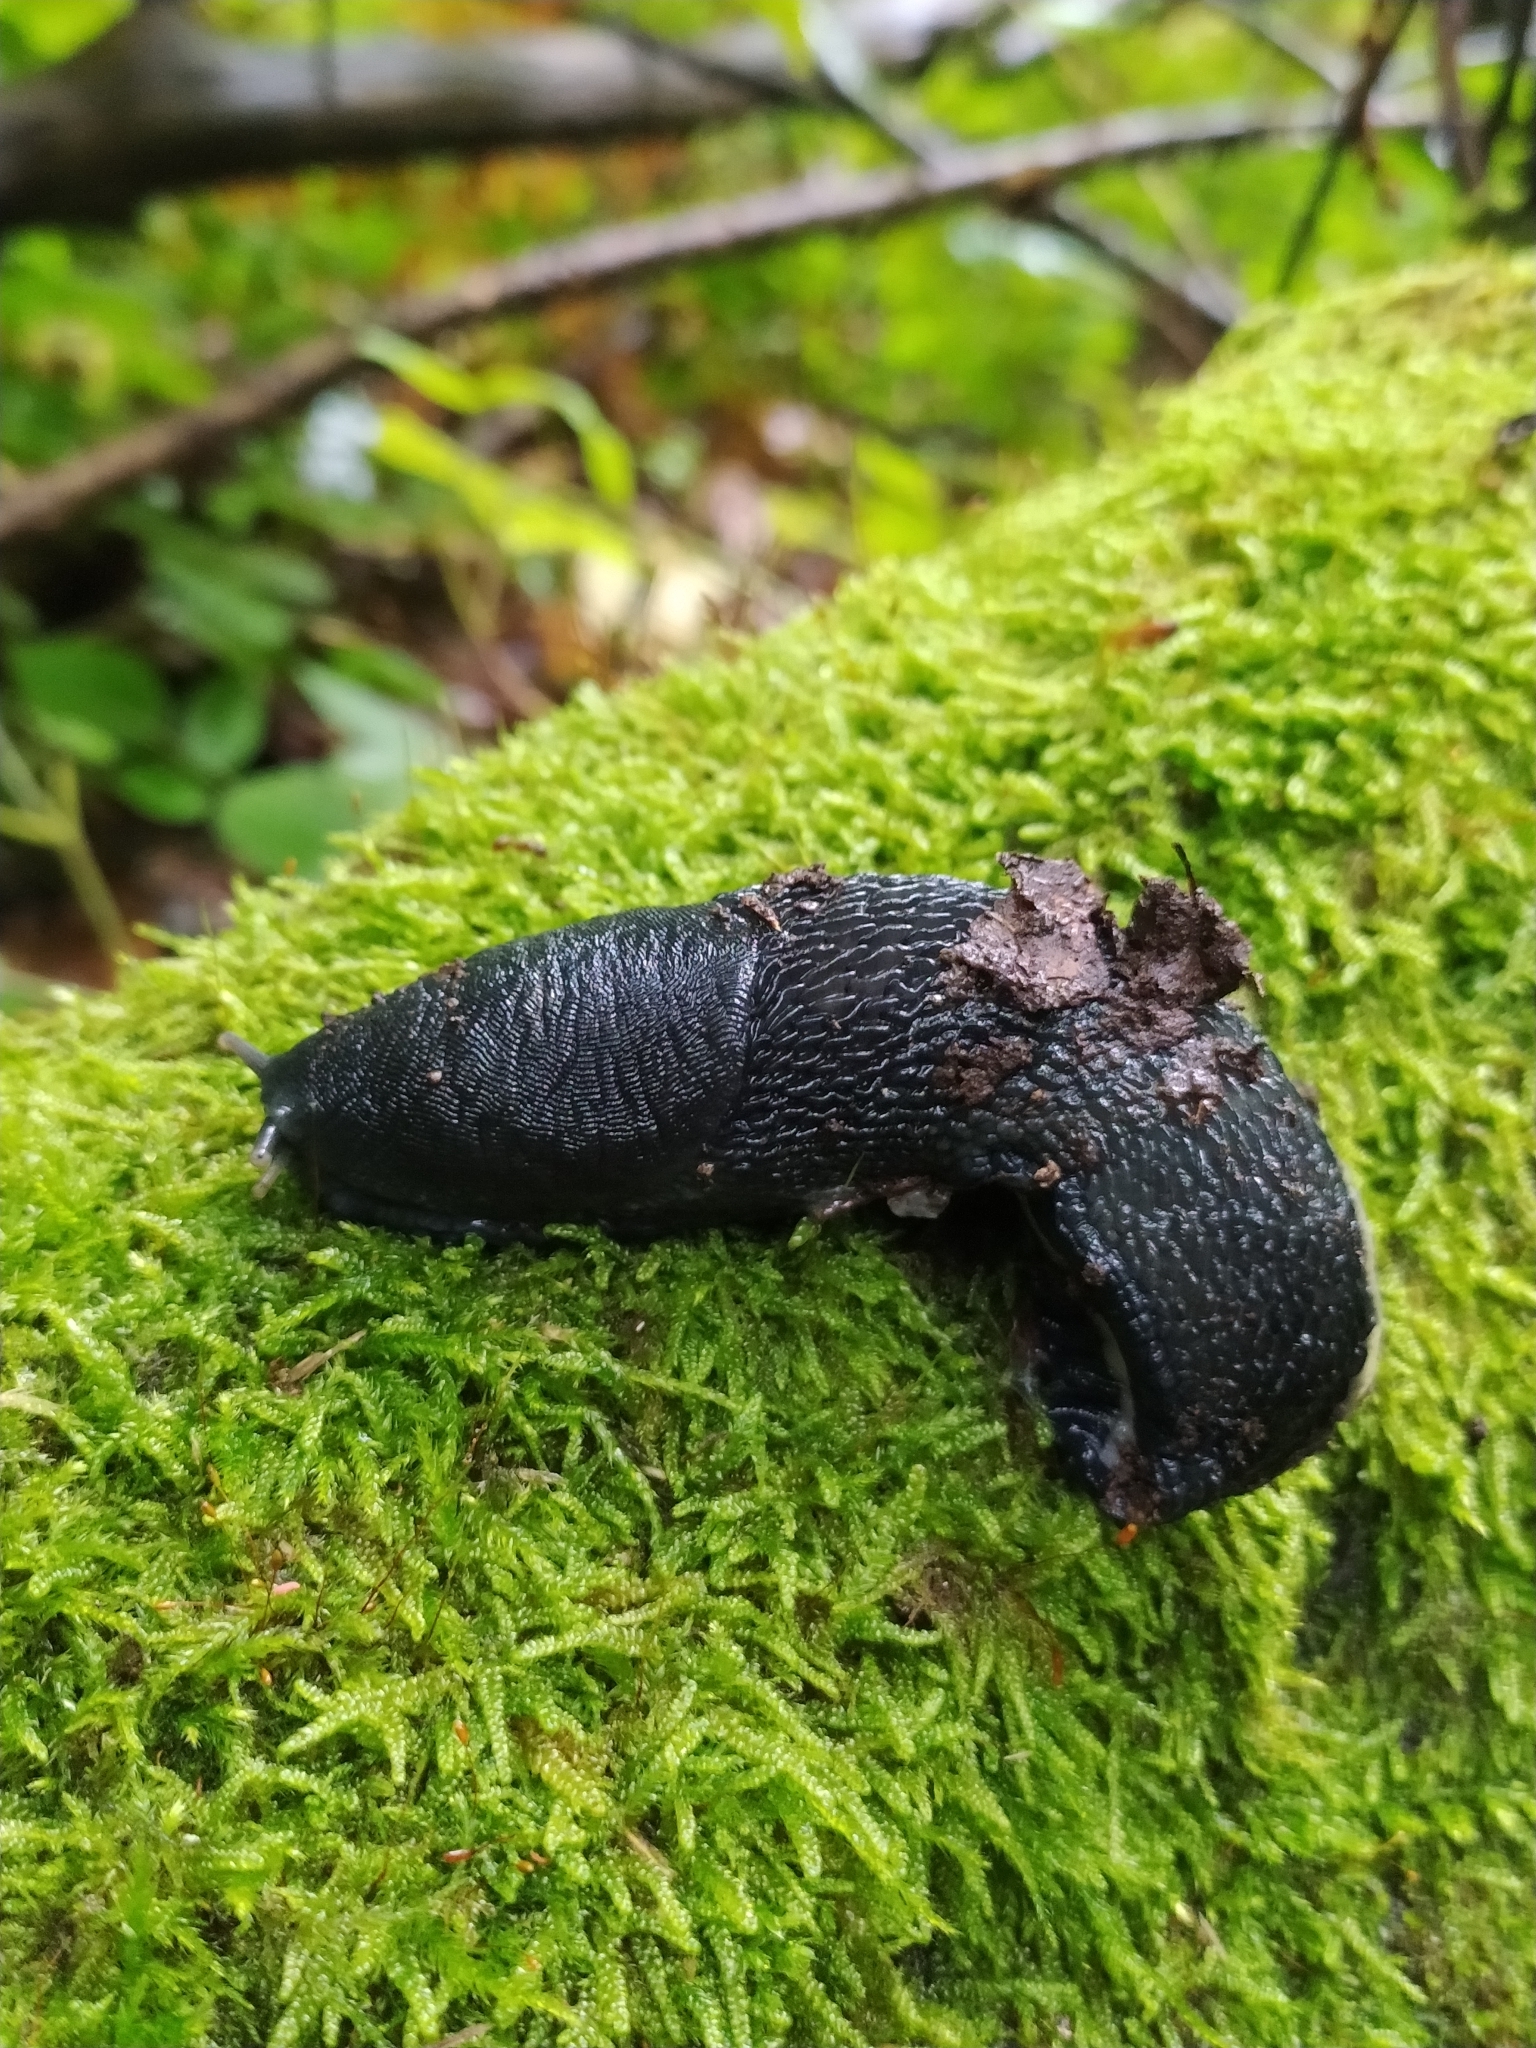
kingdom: Animalia
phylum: Mollusca
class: Gastropoda
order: Stylommatophora
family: Limacidae
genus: Limax
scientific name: Limax cinereoniger
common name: Ash-black slug
